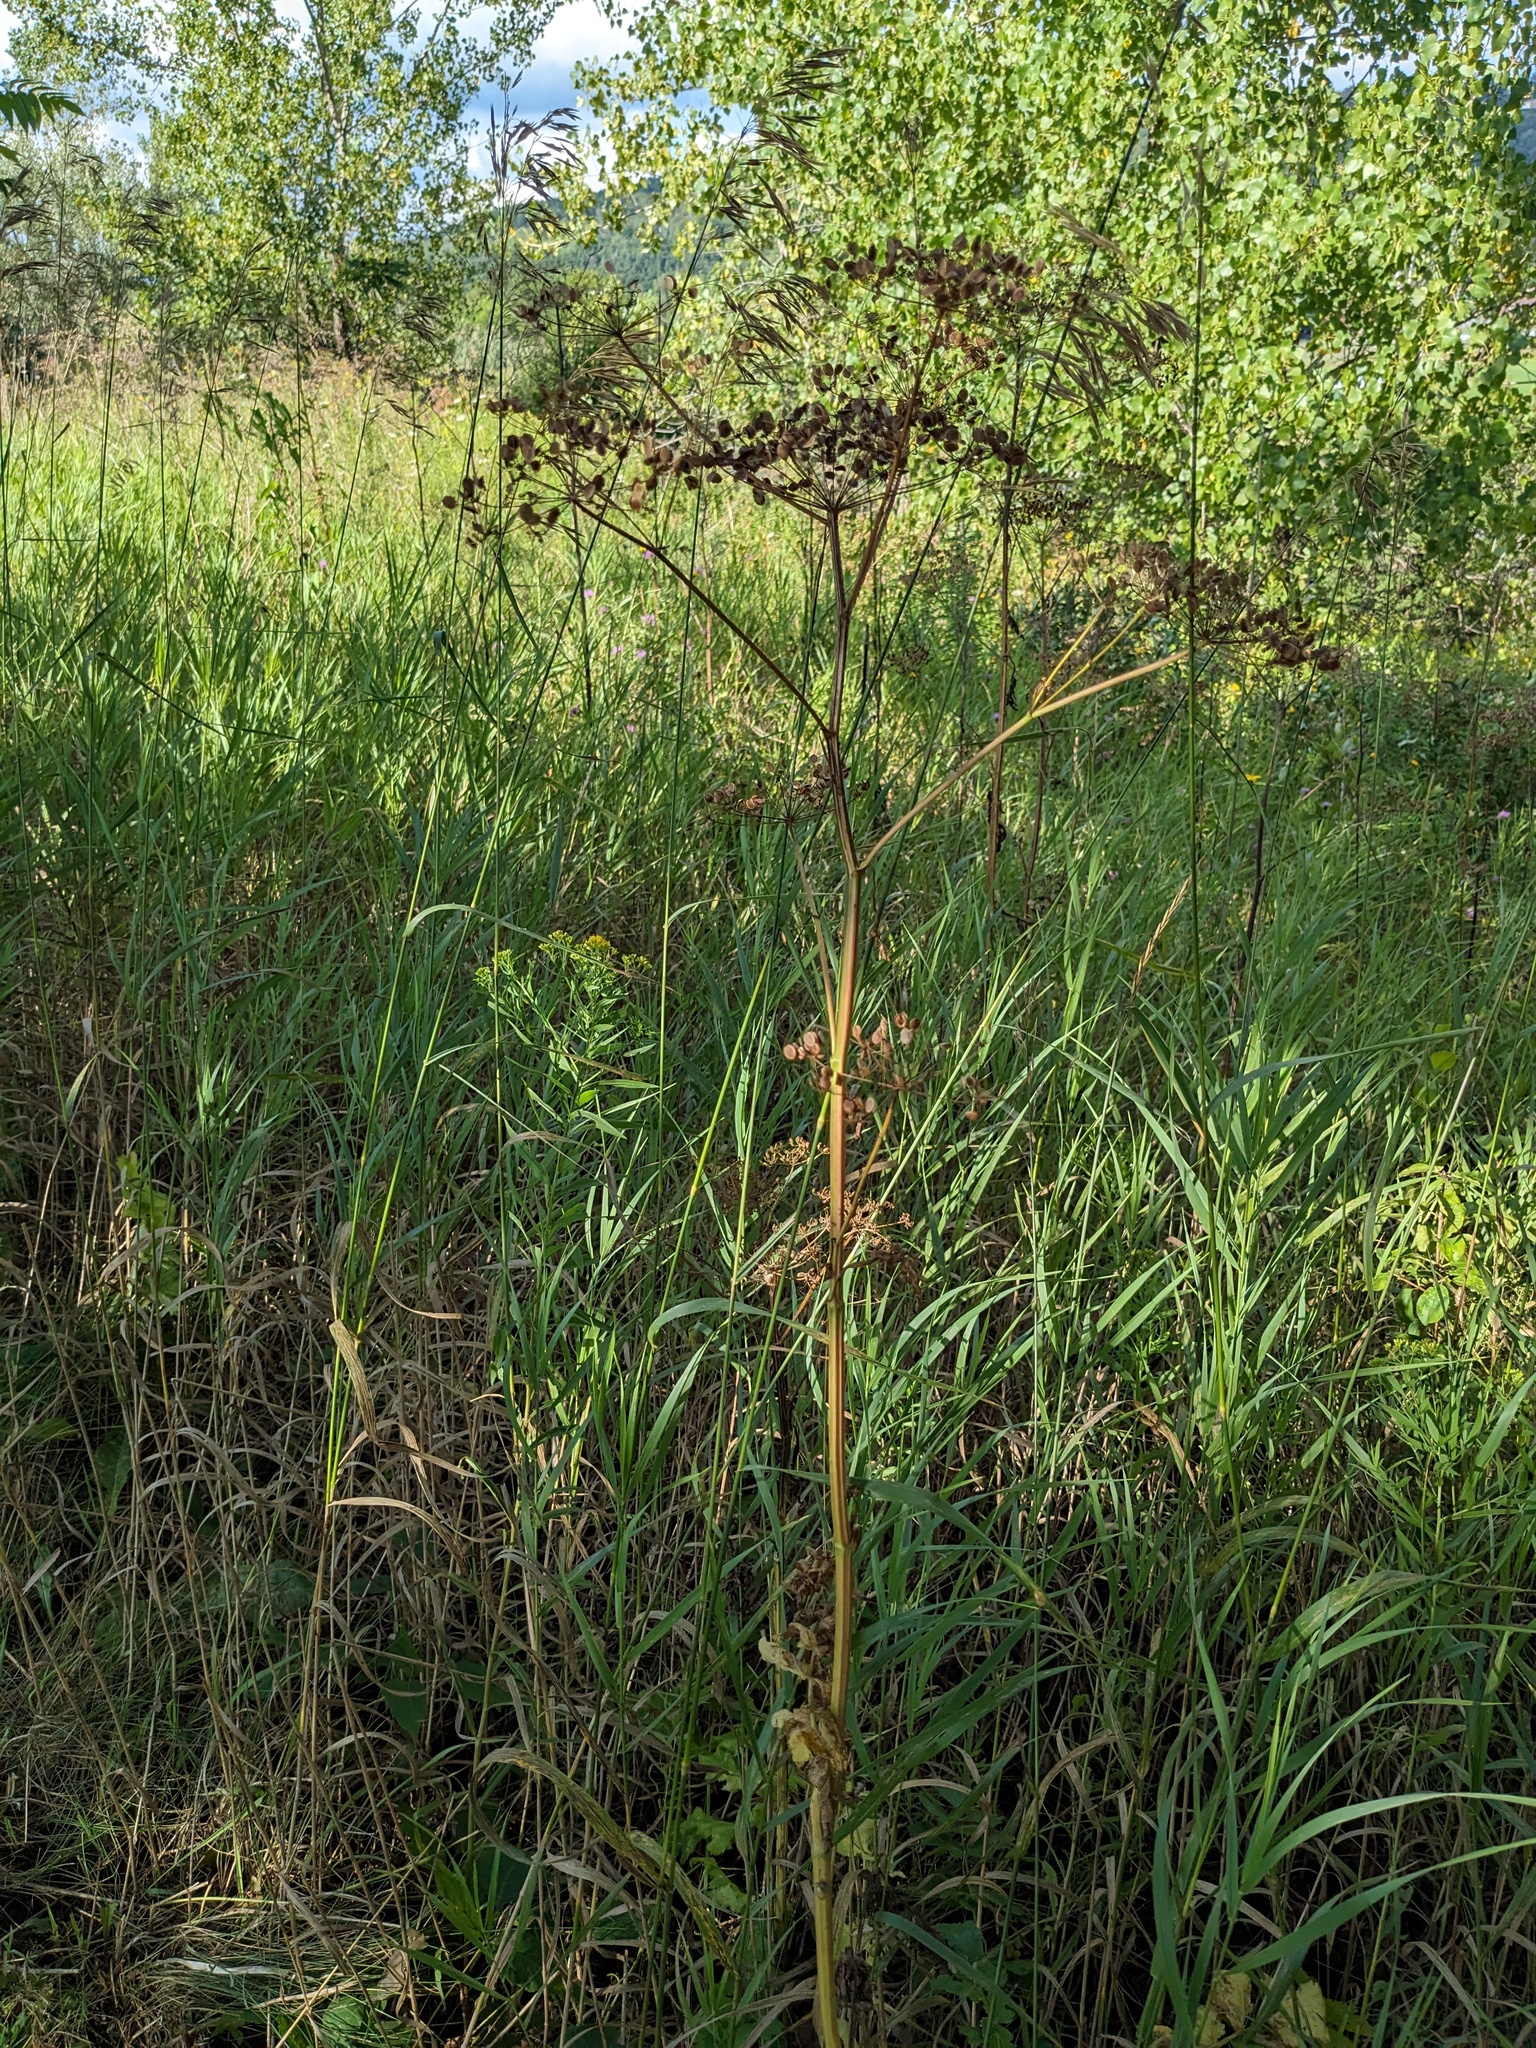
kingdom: Plantae
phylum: Tracheophyta
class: Magnoliopsida
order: Apiales
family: Apiaceae
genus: Pastinaca
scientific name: Pastinaca sativa
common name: Wild parsnip
